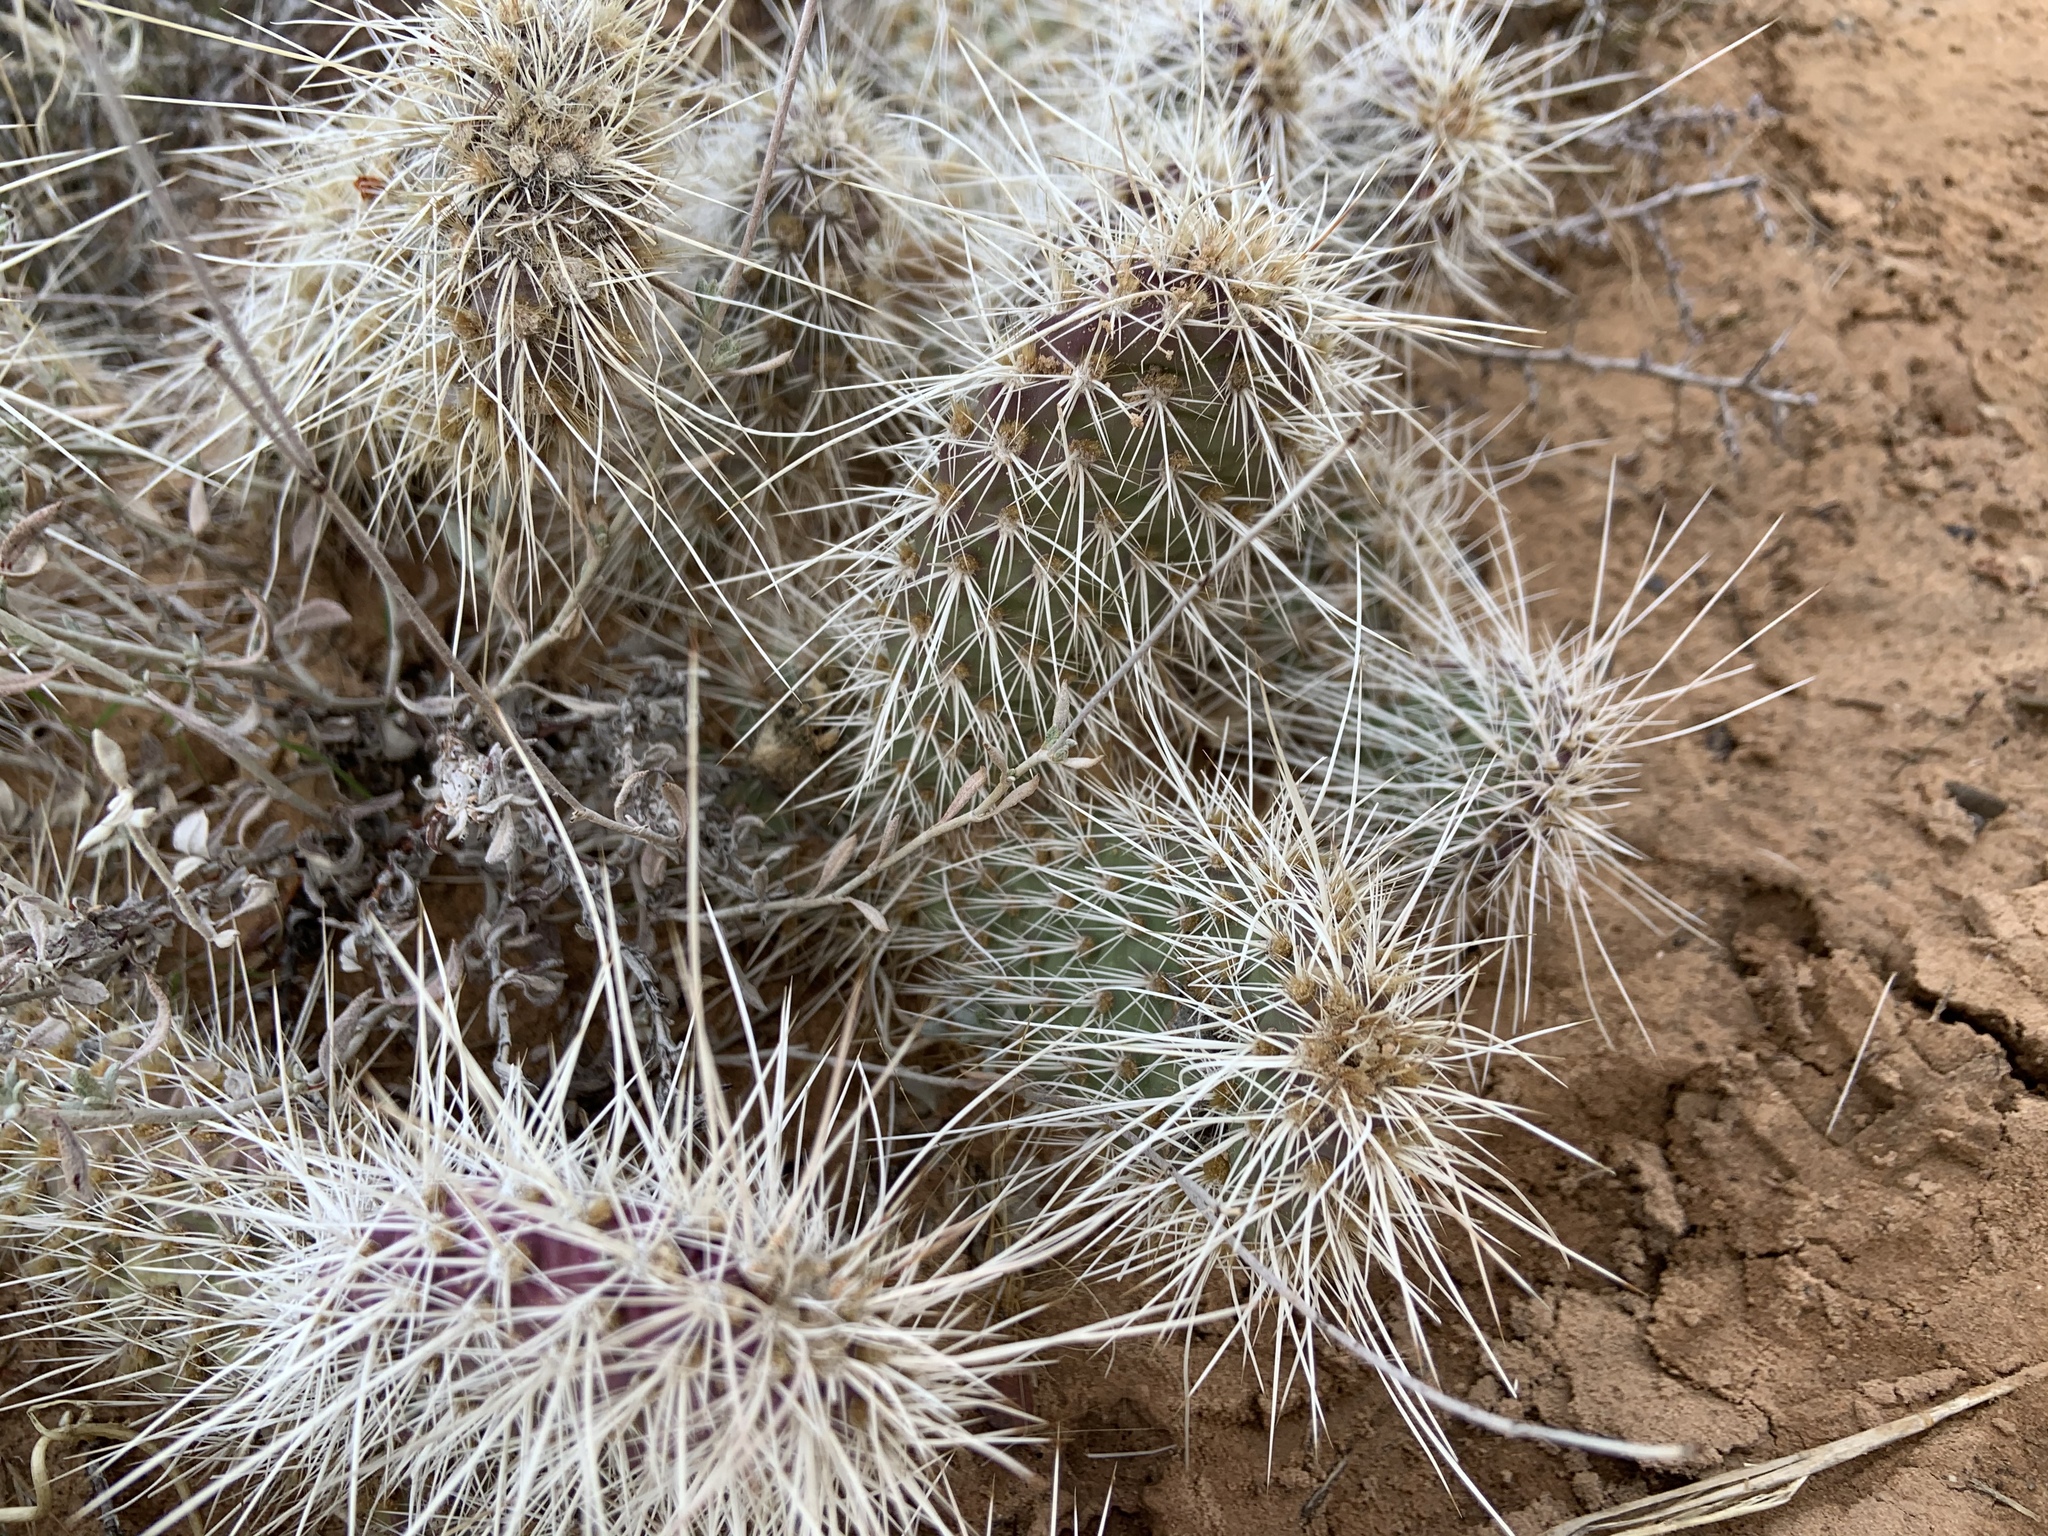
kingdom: Plantae
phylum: Tracheophyta
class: Magnoliopsida
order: Caryophyllales
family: Cactaceae
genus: Opuntia
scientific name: Opuntia polyacantha
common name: Plains prickly-pear
